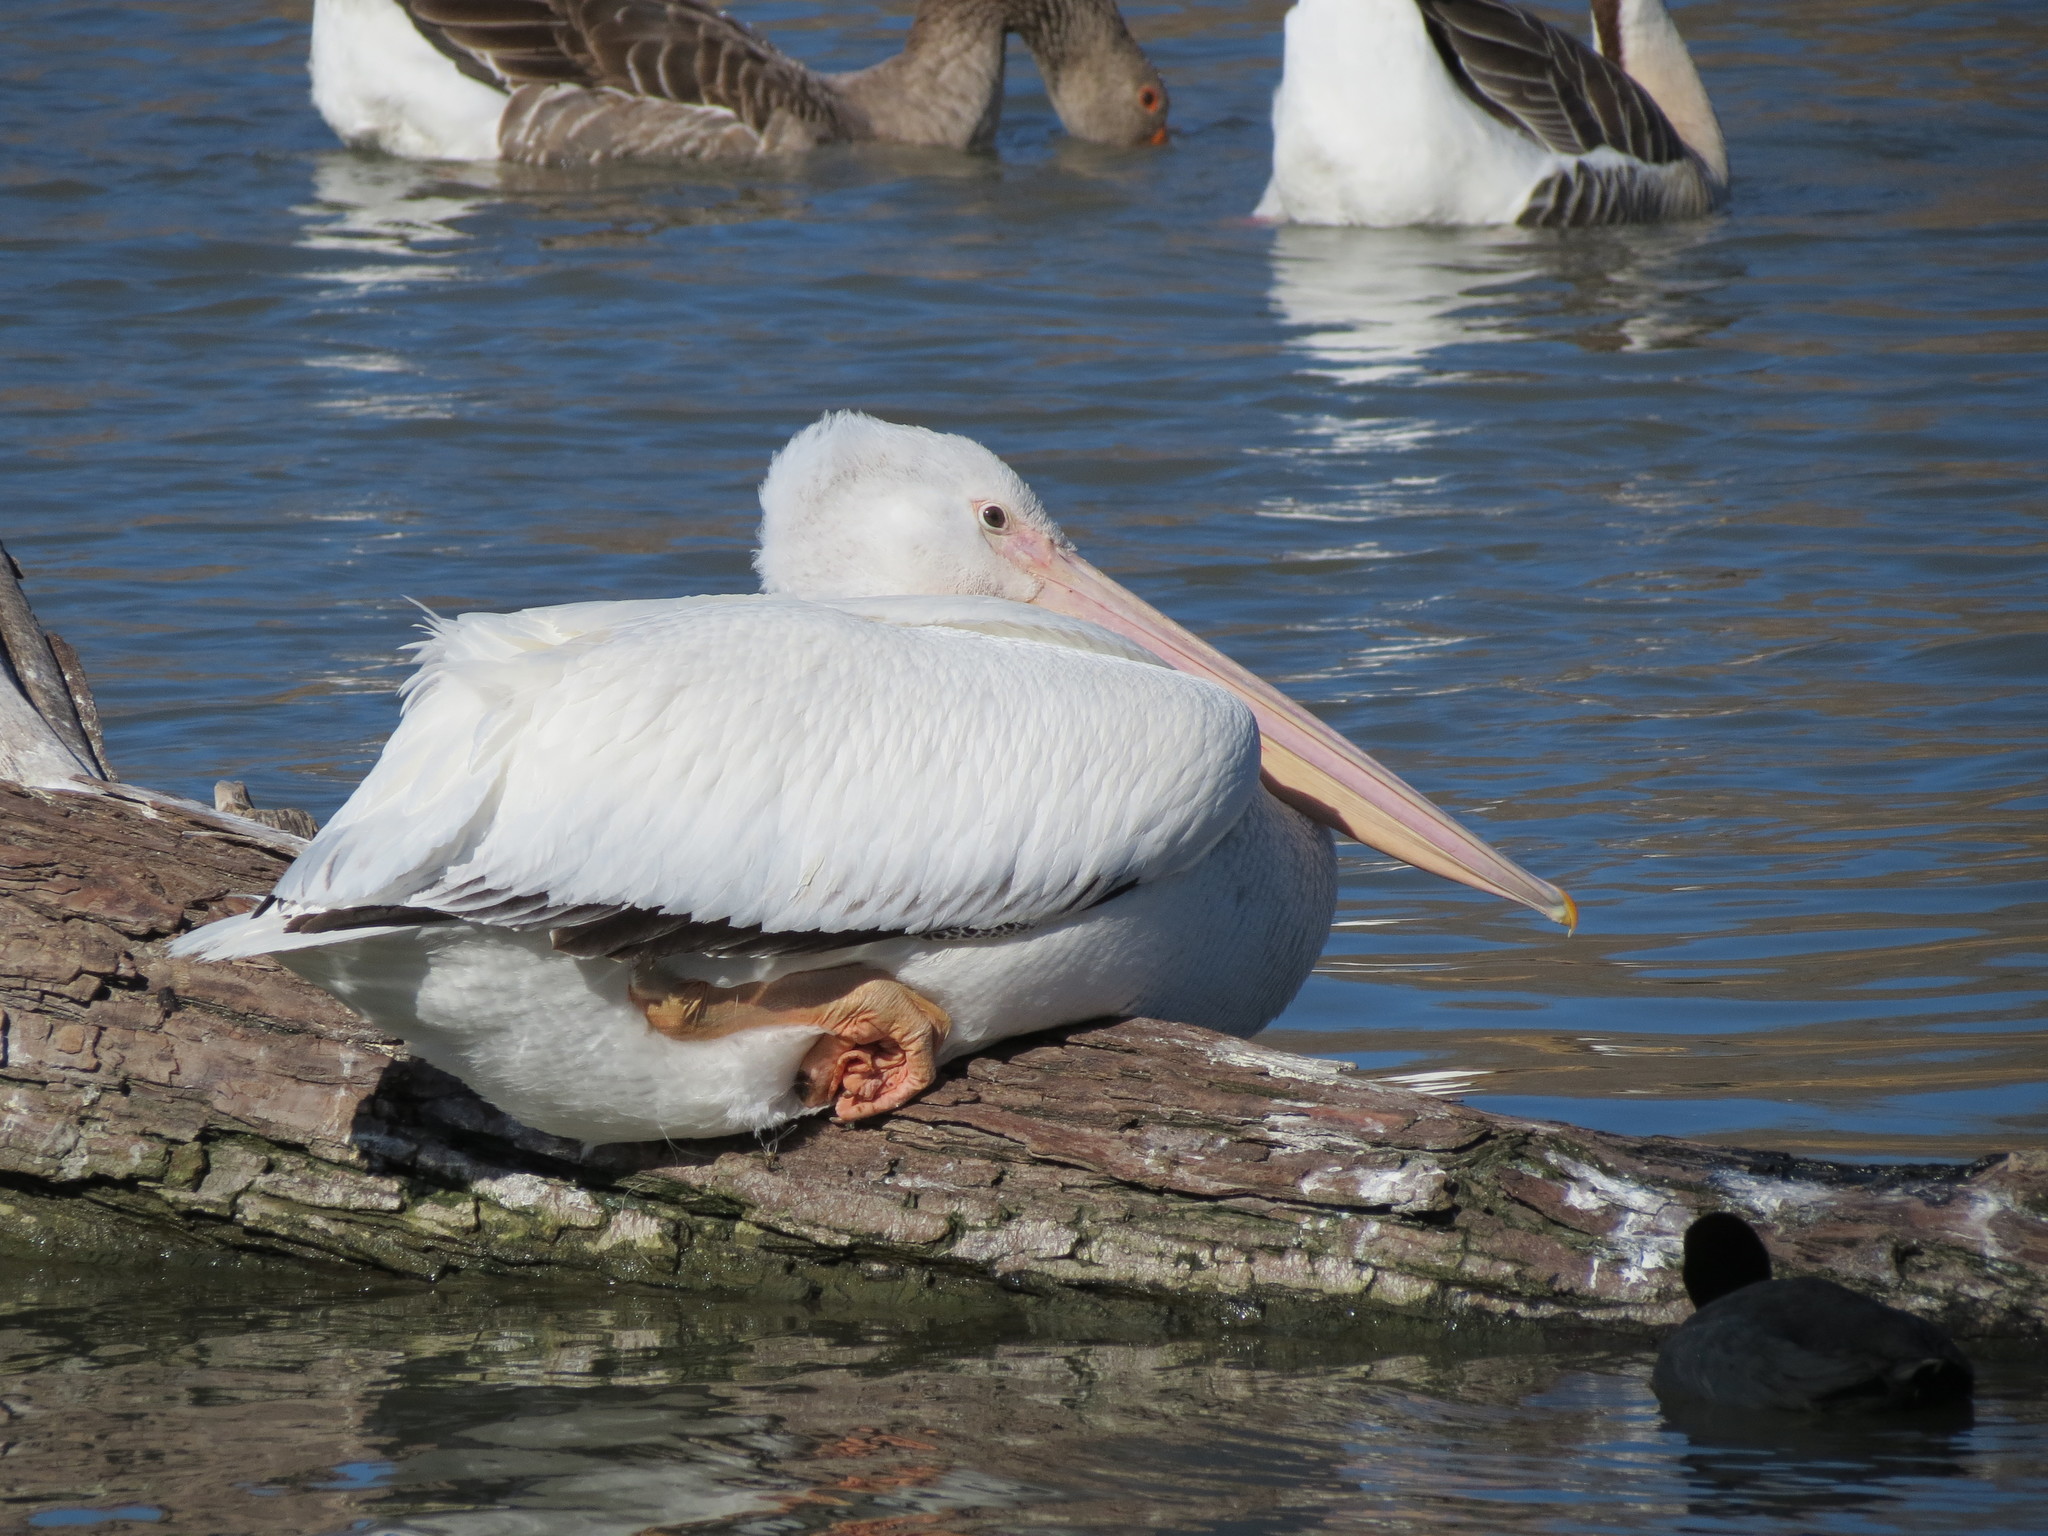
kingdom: Animalia
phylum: Chordata
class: Aves
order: Pelecaniformes
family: Pelecanidae
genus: Pelecanus
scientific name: Pelecanus erythrorhynchos
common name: American white pelican
